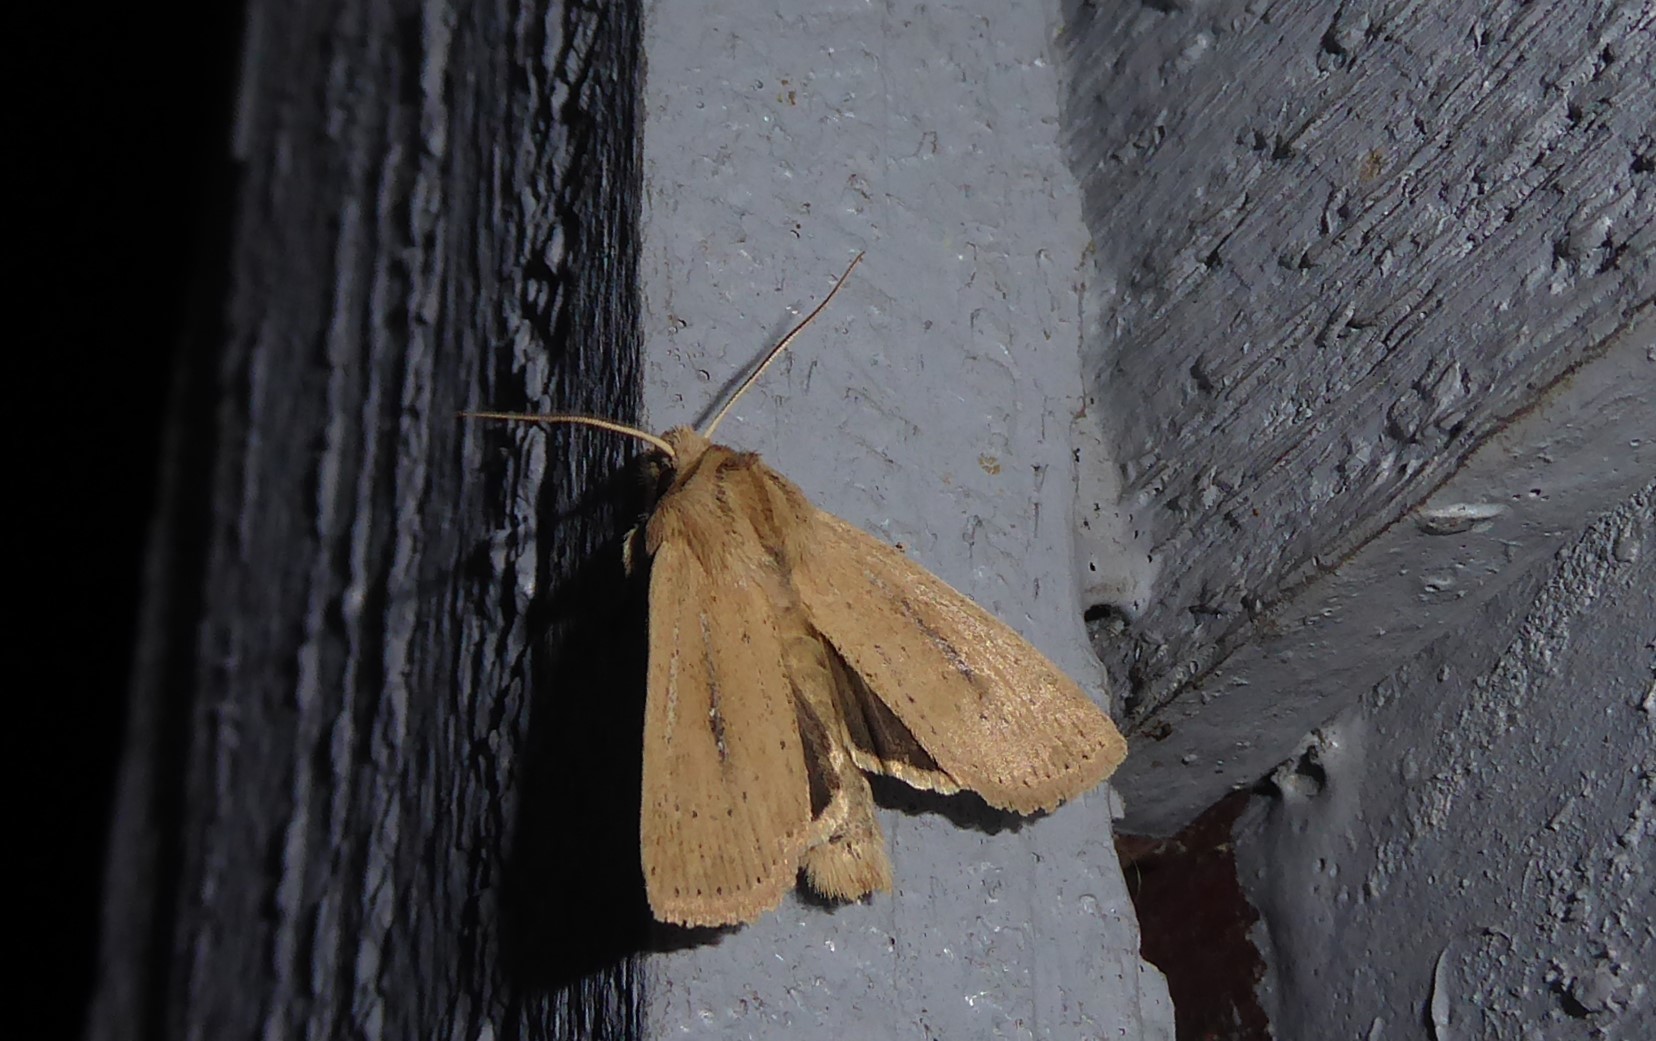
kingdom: Animalia
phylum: Arthropoda
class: Insecta
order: Lepidoptera
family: Noctuidae
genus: Ichneutica
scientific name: Ichneutica
